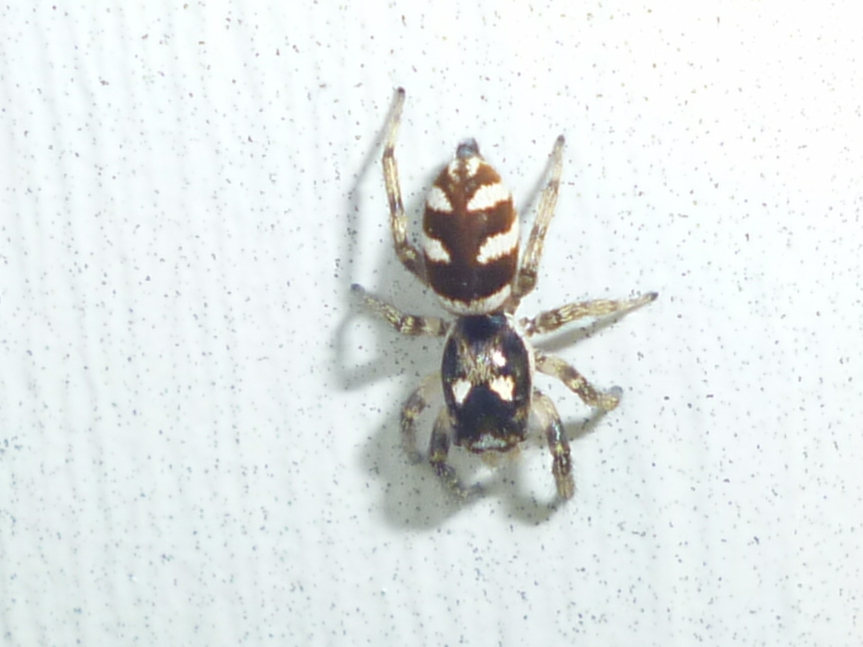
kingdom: Animalia
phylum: Arthropoda
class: Arachnida
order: Araneae
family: Salticidae
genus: Salticus
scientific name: Salticus scenicus
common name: Zebra jumper
